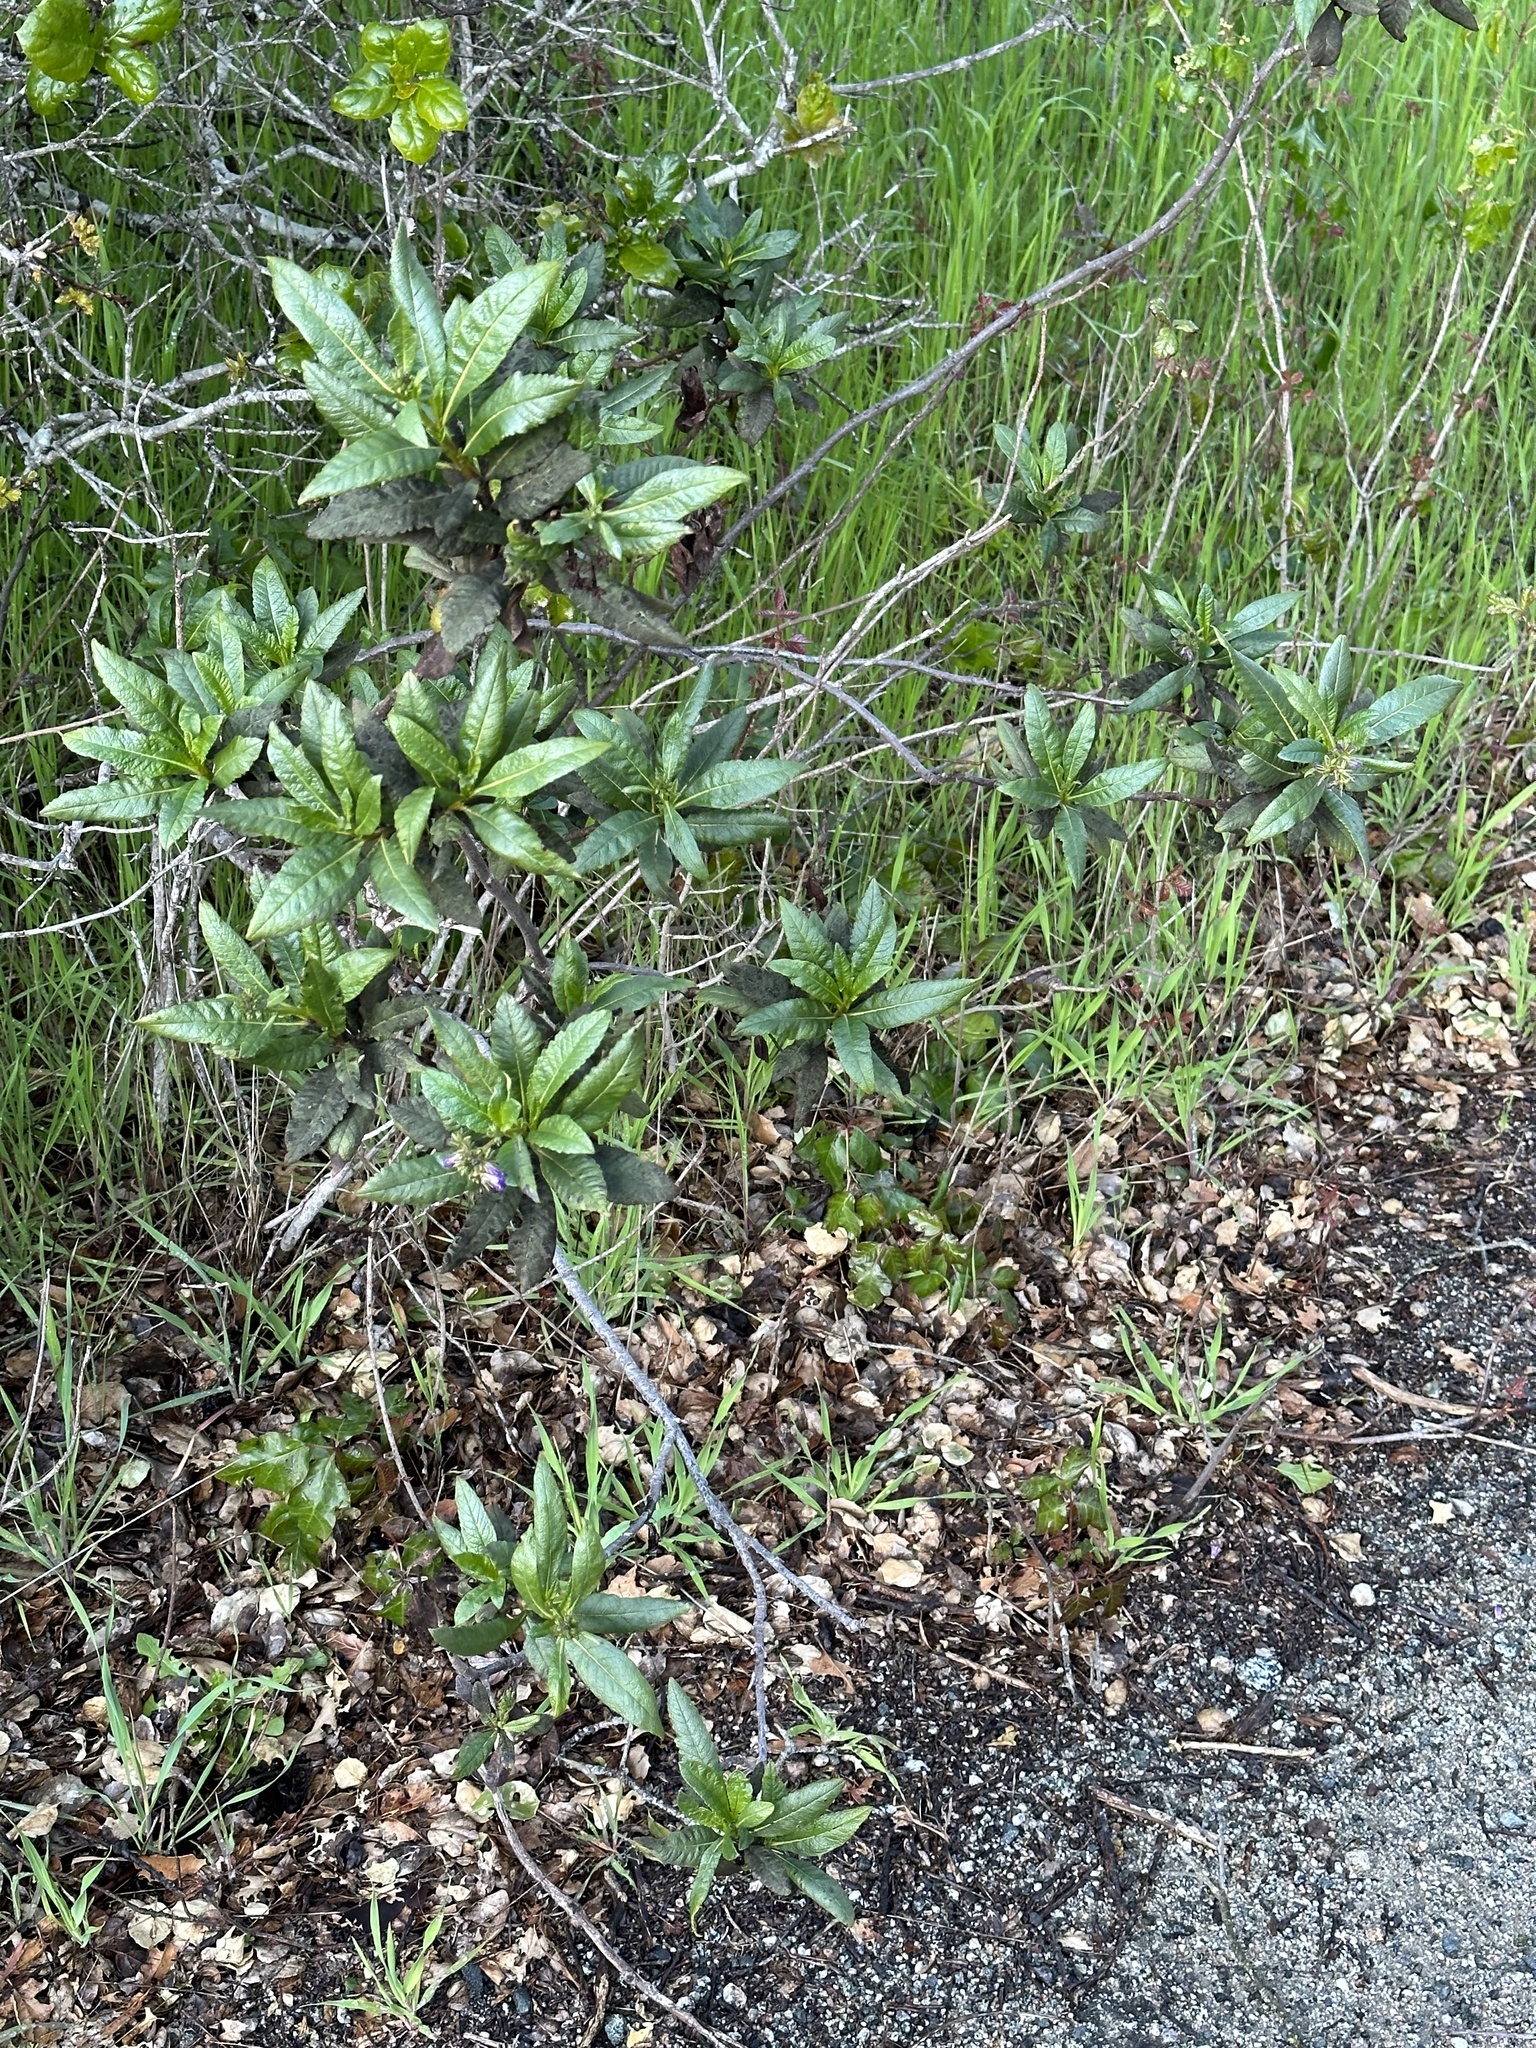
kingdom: Plantae
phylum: Tracheophyta
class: Magnoliopsida
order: Boraginales
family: Namaceae
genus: Eriodictyon
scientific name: Eriodictyon californicum
